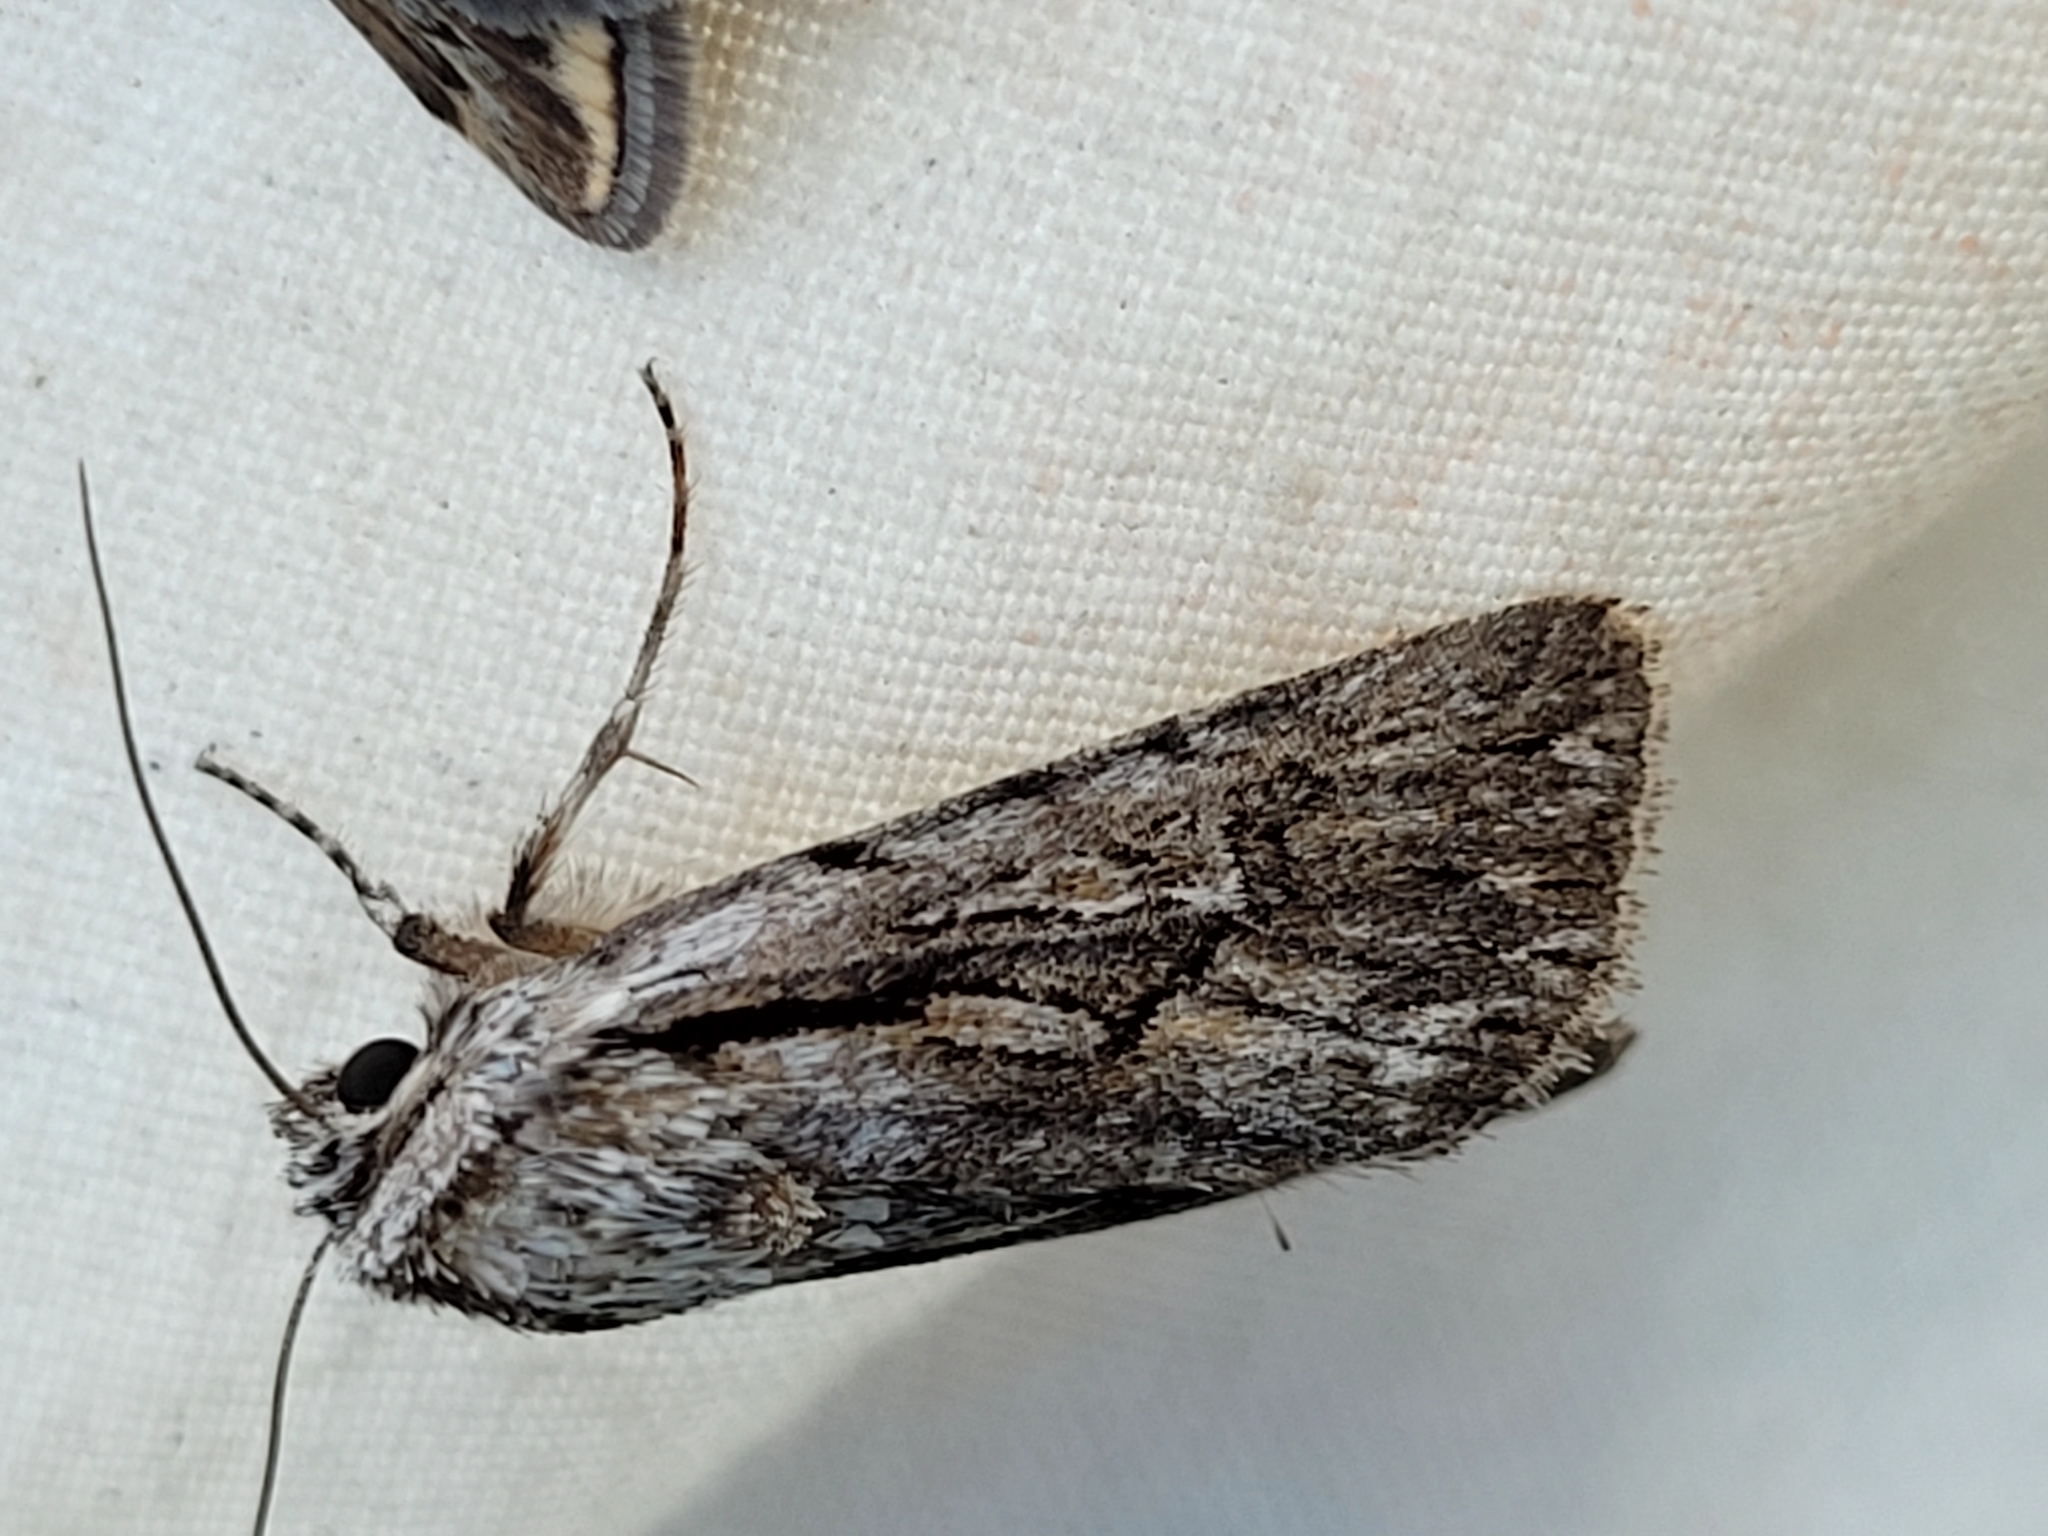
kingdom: Animalia
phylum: Arthropoda
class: Insecta
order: Lepidoptera
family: Noctuidae
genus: Sympistis
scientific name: Sympistis mackiei
